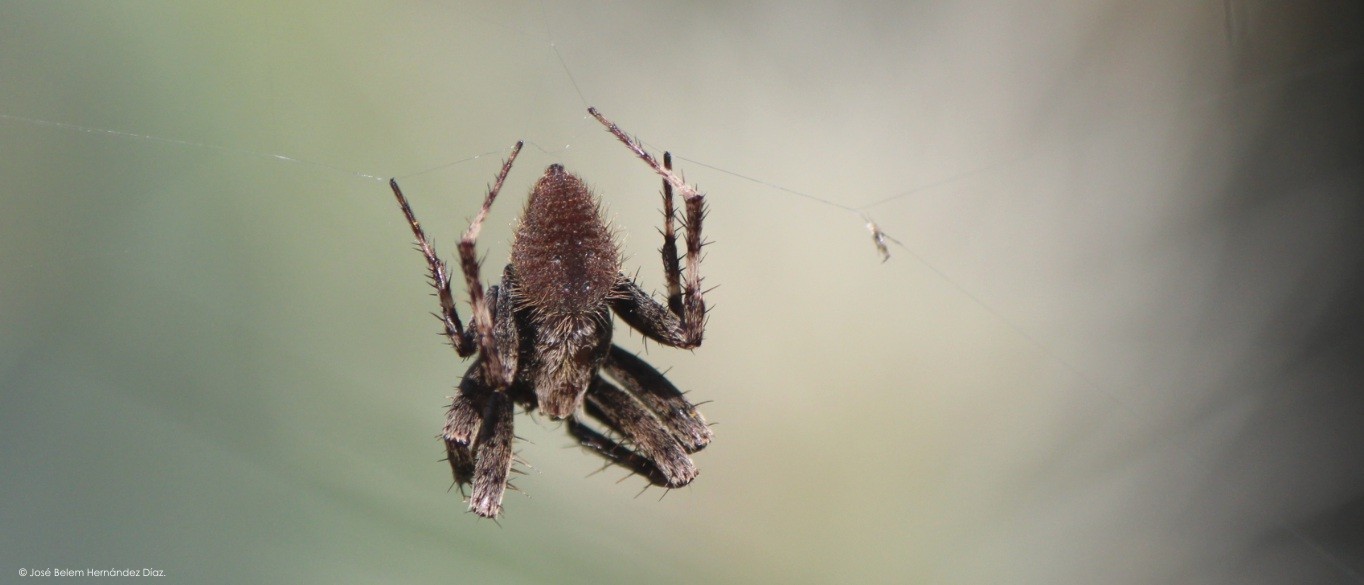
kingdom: Animalia
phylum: Arthropoda
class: Arachnida
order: Araneae
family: Araneidae
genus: Neoscona
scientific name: Neoscona crucifera
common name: Spotted orbweaver
